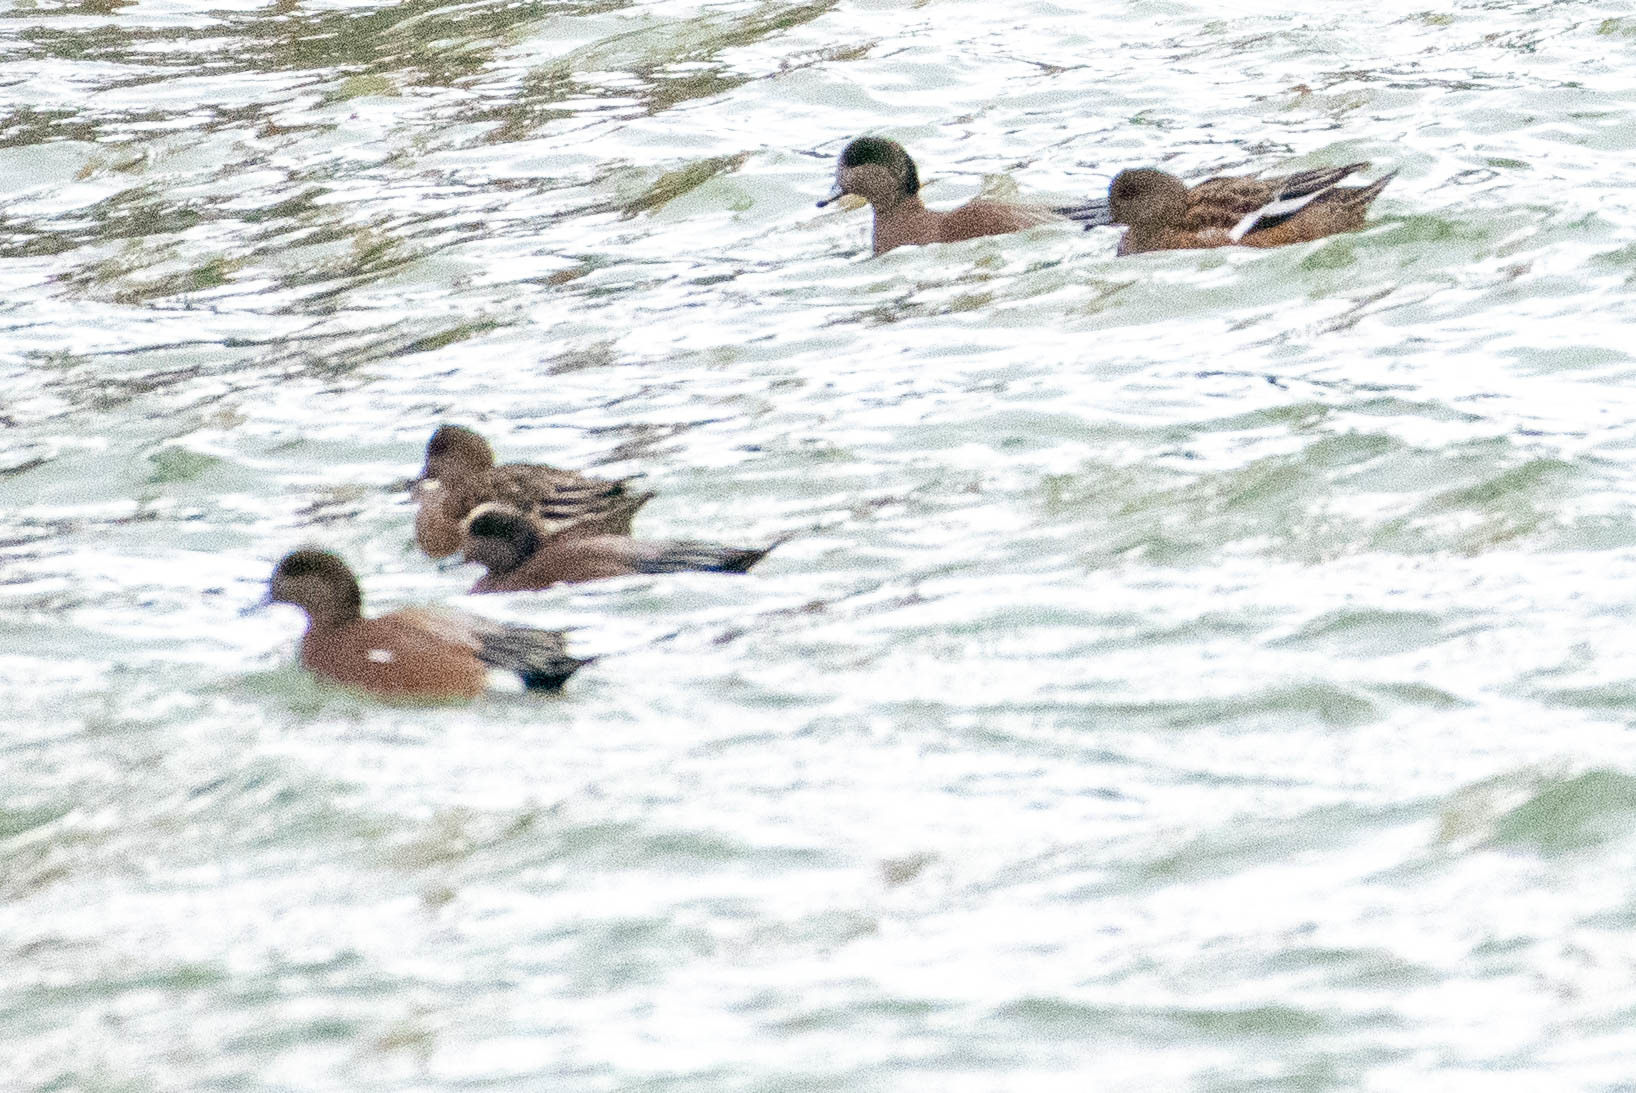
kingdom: Animalia
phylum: Chordata
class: Aves
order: Anseriformes
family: Anatidae
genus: Mareca
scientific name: Mareca americana
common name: American wigeon
